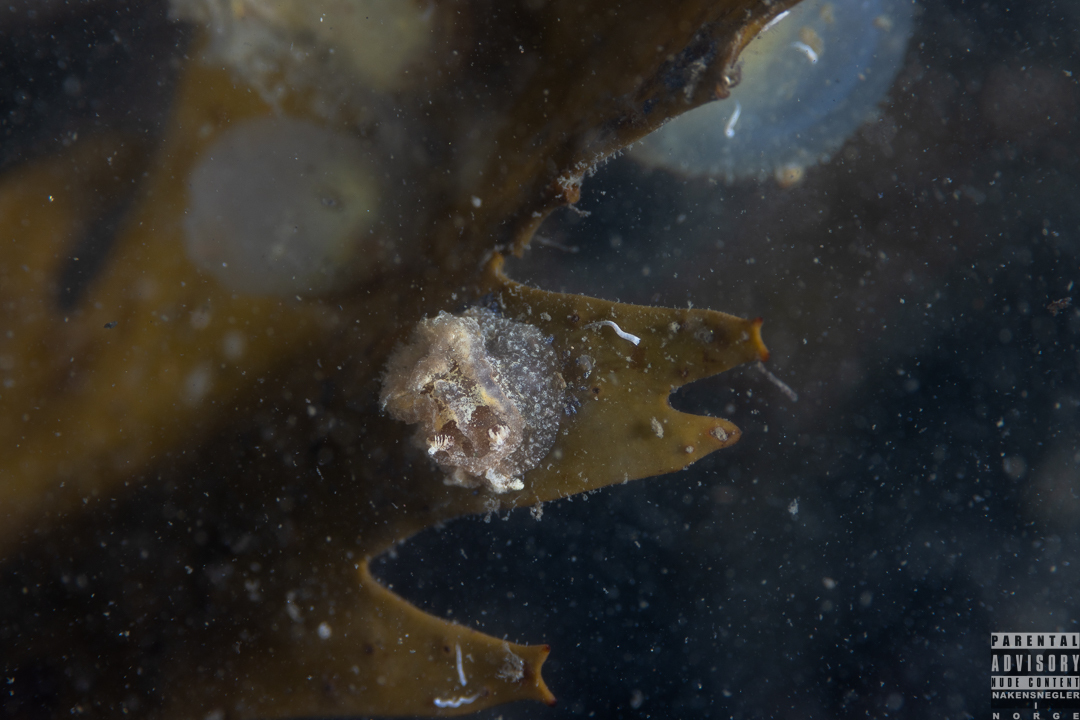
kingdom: Animalia
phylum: Mollusca
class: Gastropoda
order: Nudibranchia
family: Goniodorididae
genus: Pelagella
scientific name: Pelagella castanea
